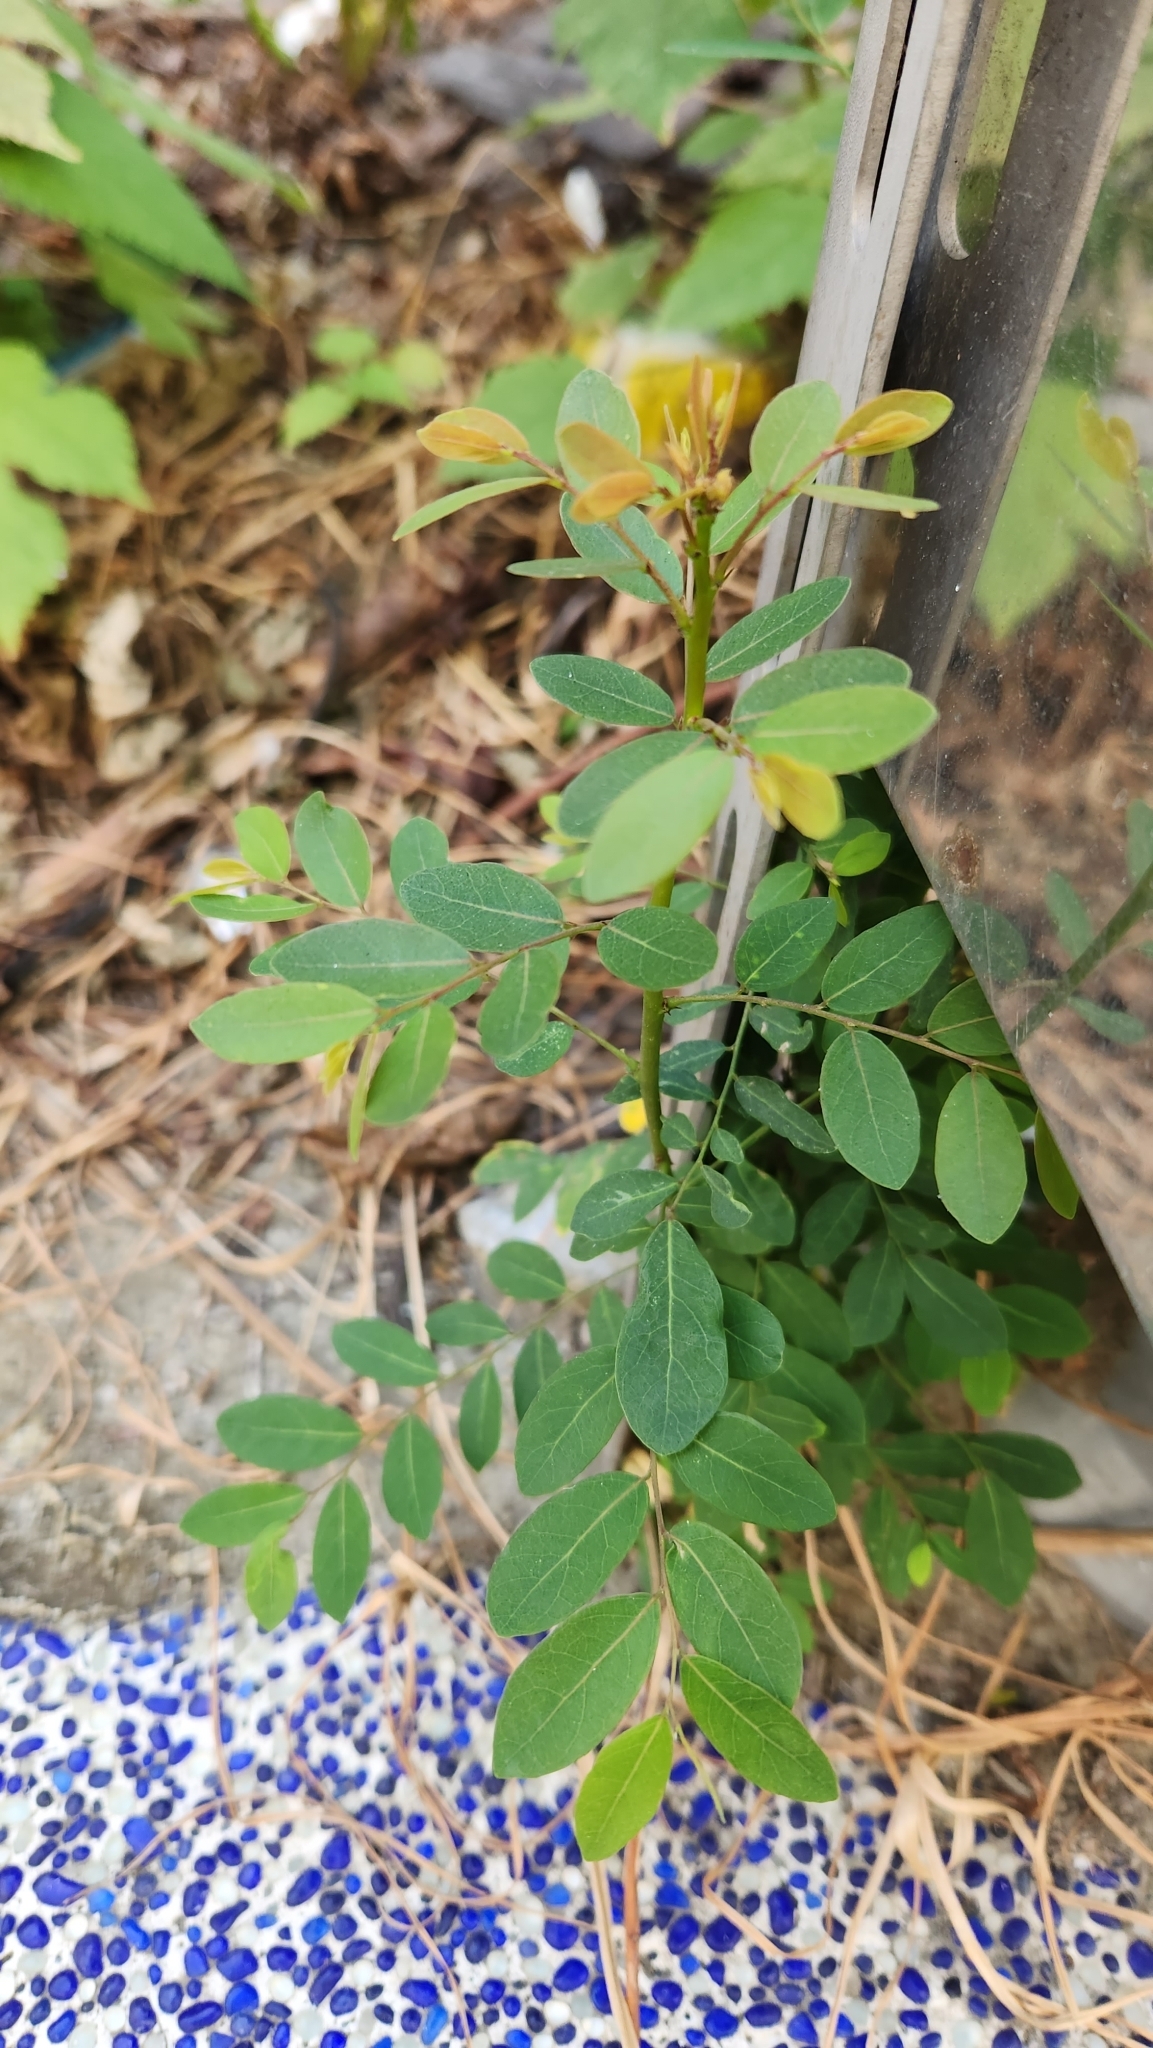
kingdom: Plantae
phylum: Tracheophyta
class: Magnoliopsida
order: Malpighiales
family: Phyllanthaceae
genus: Phyllanthus
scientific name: Phyllanthus reticulatus
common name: Potato bush
